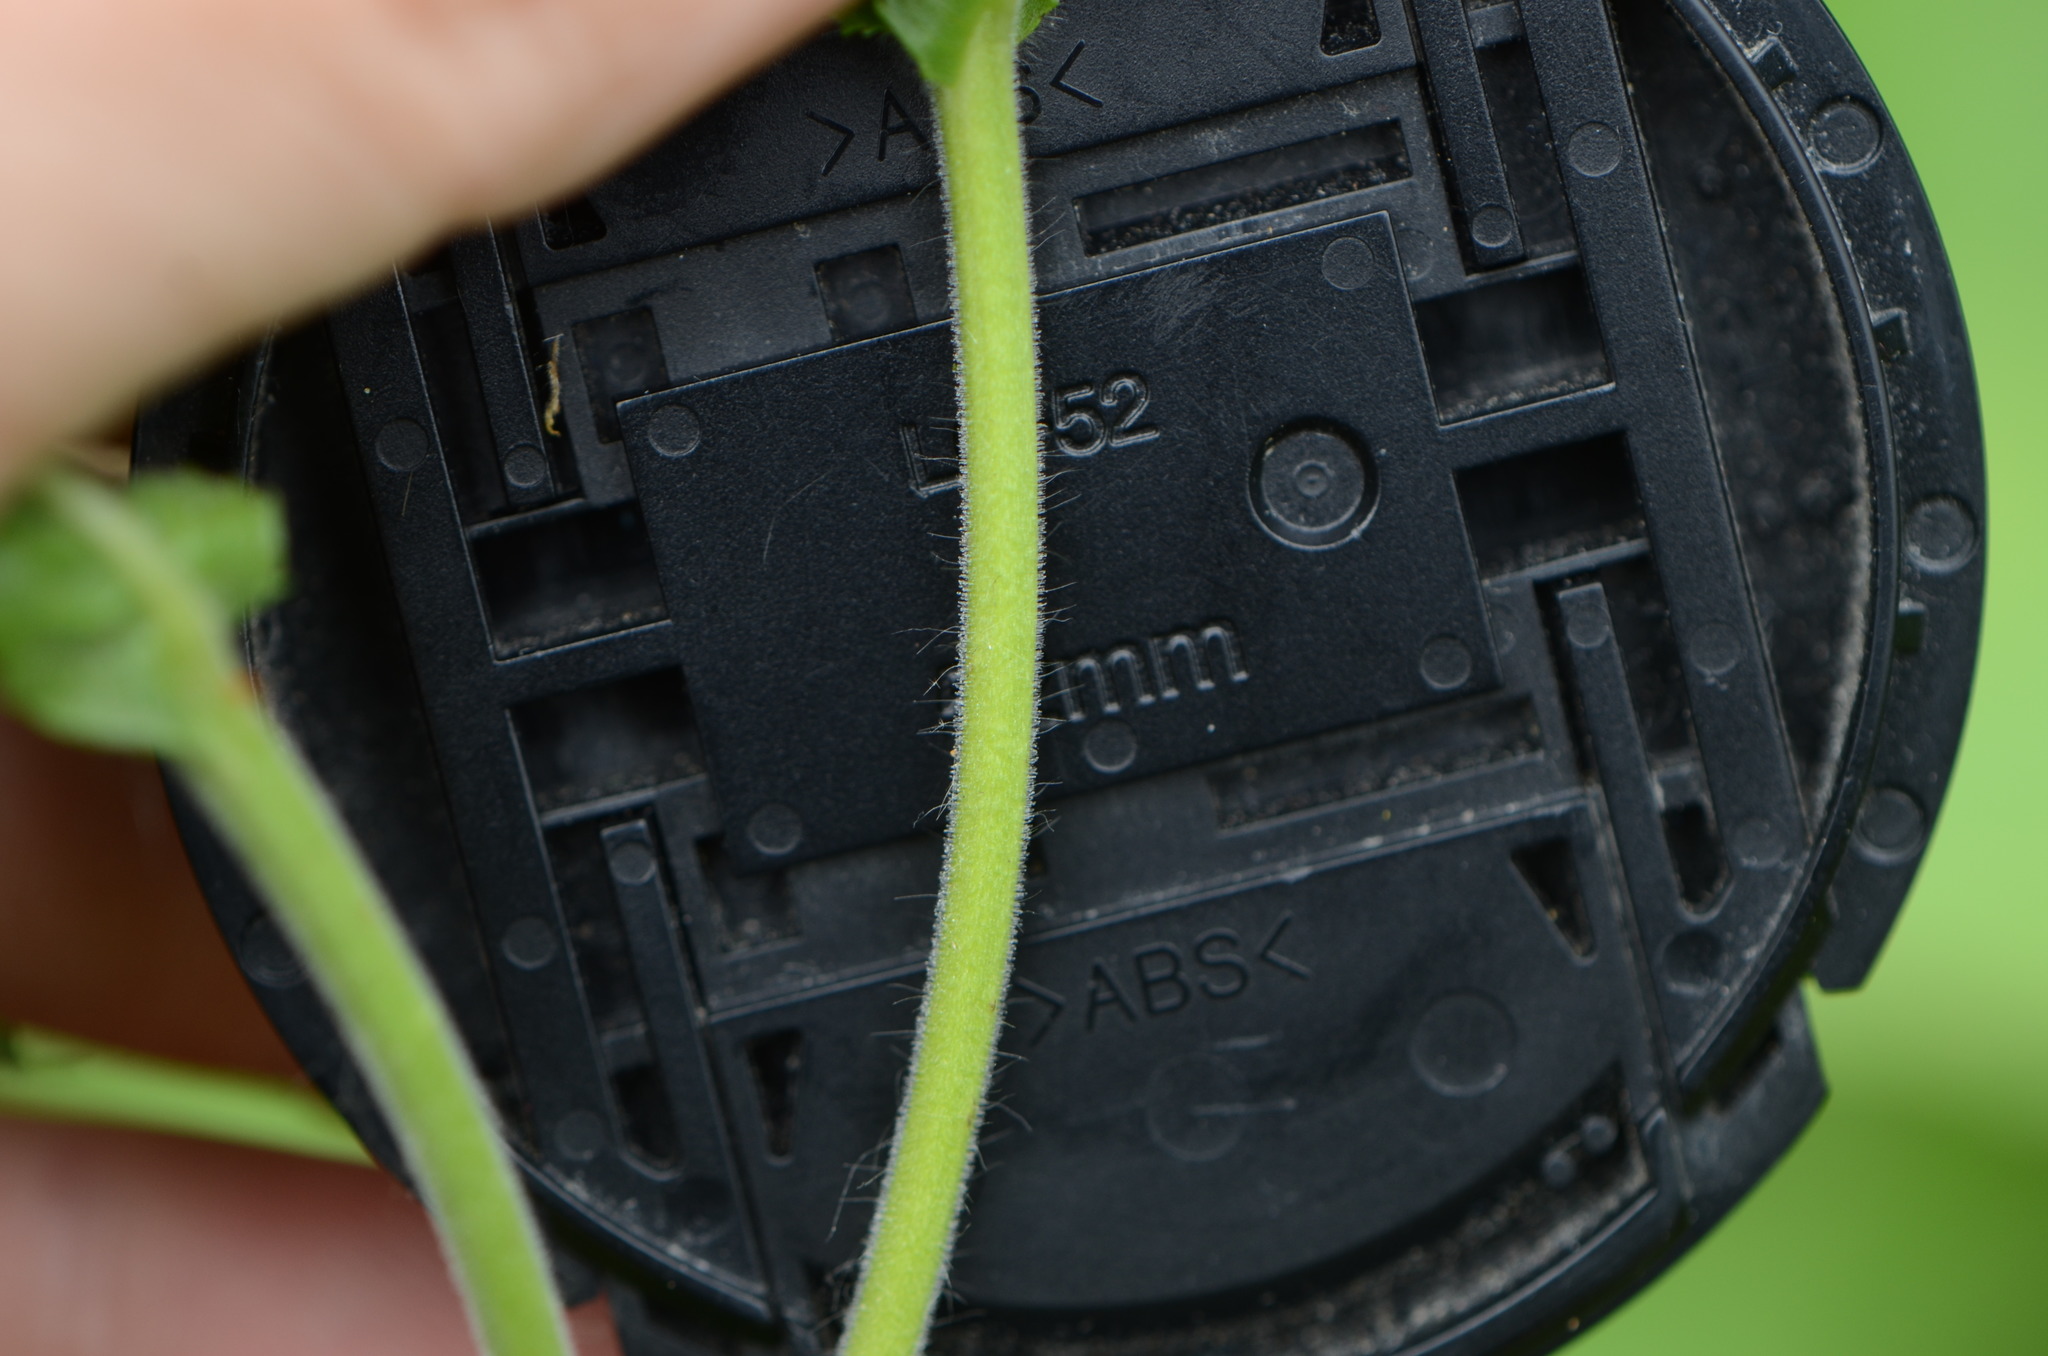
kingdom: Plantae
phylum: Tracheophyta
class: Magnoliopsida
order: Myrtales
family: Onagraceae
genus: Epilobium
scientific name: Epilobium hirsutum
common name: Great willowherb
